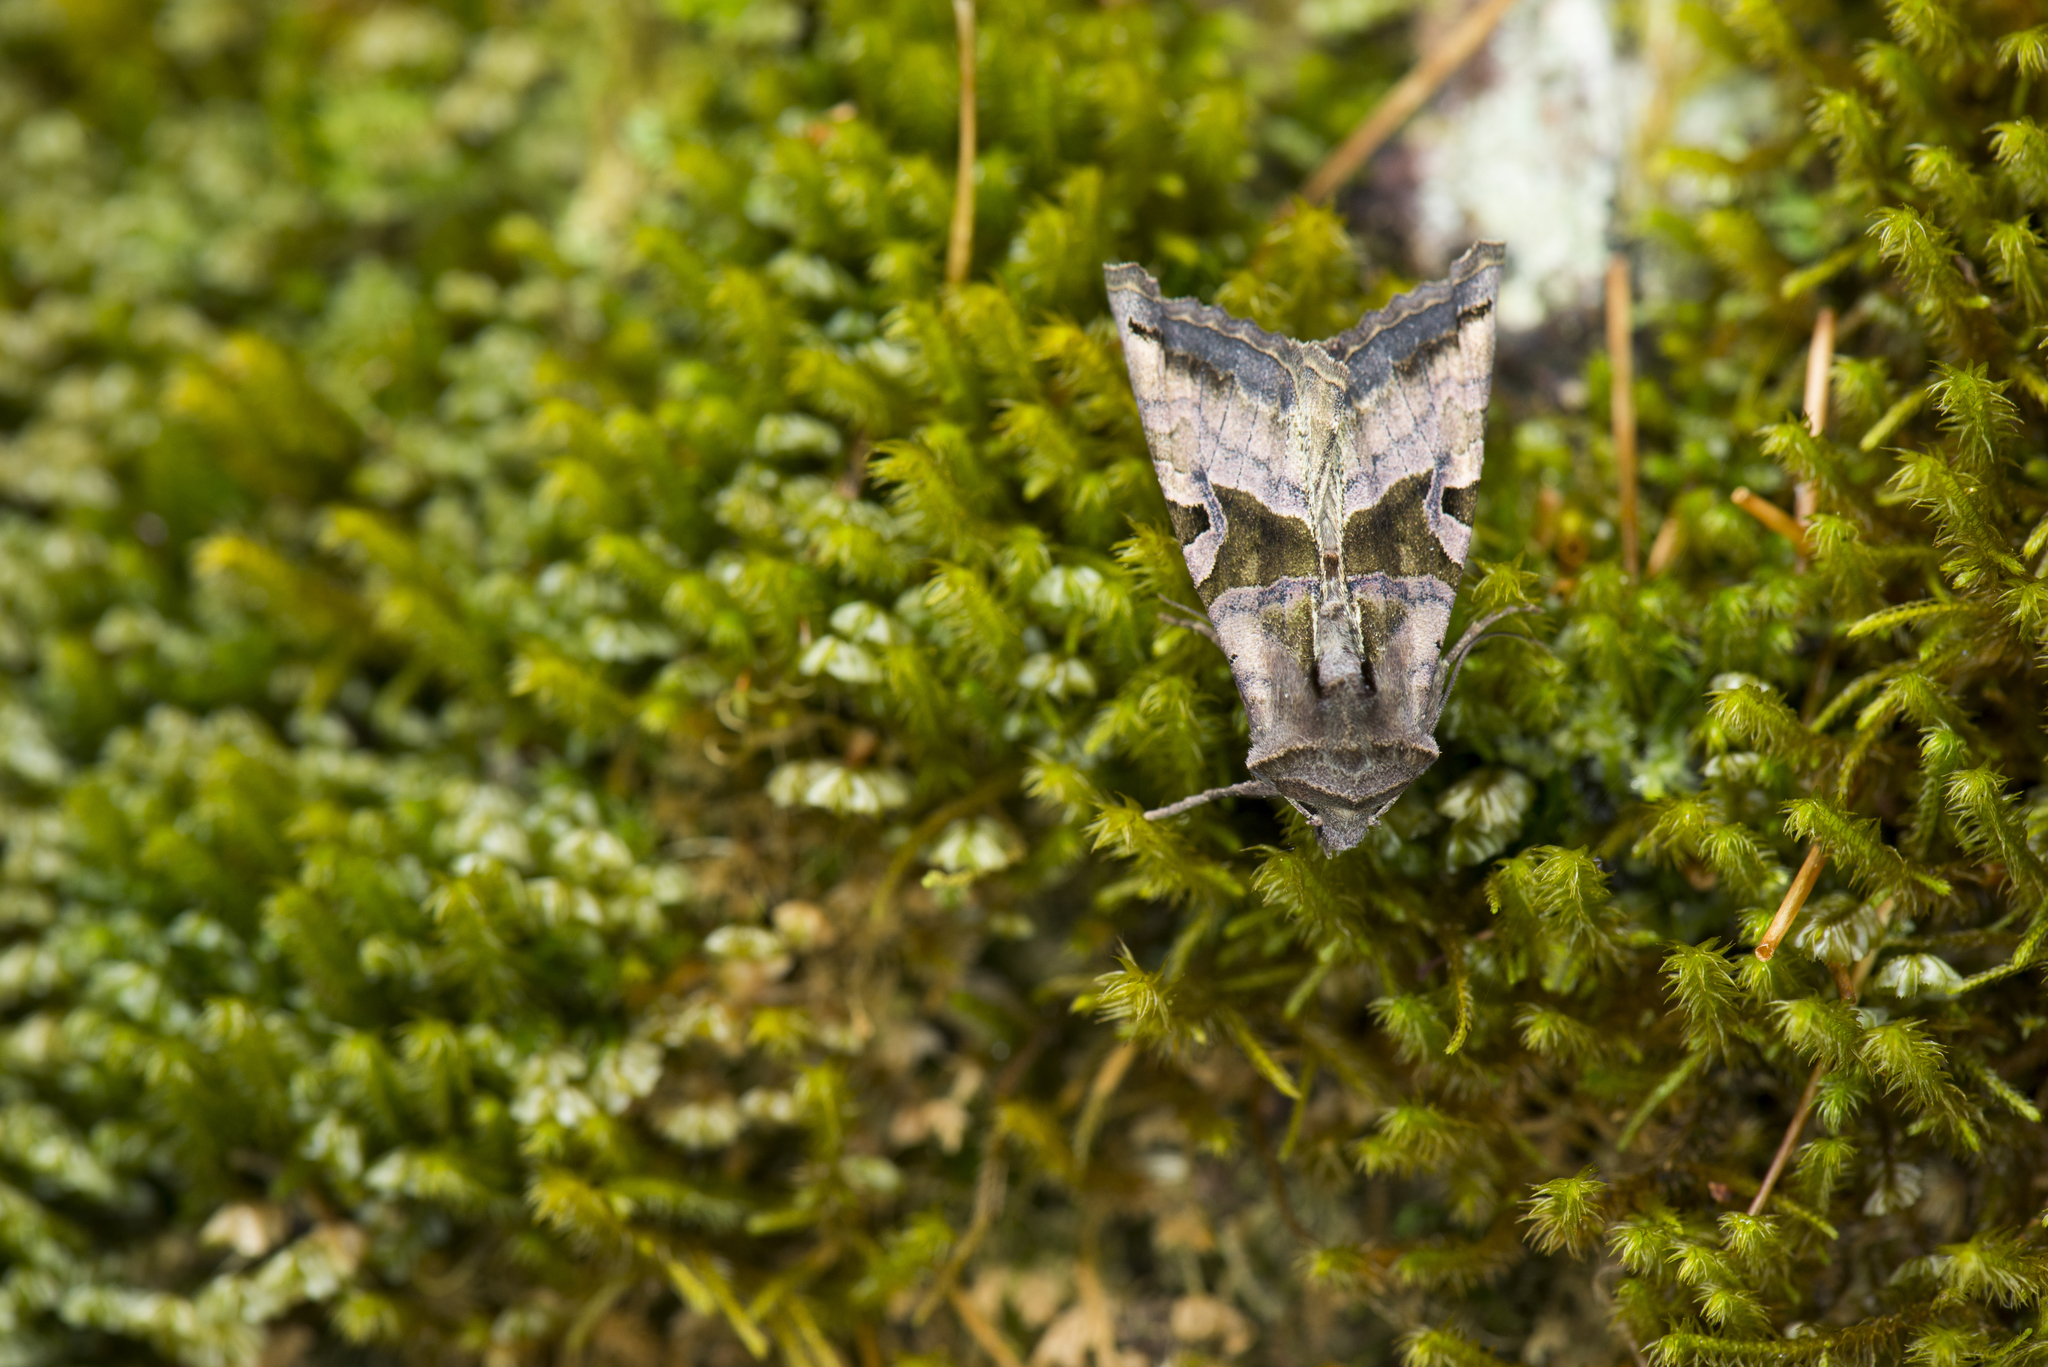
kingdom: Animalia
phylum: Arthropoda
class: Insecta
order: Lepidoptera
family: Noctuidae
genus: Phlogophora
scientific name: Phlogophora insularis
